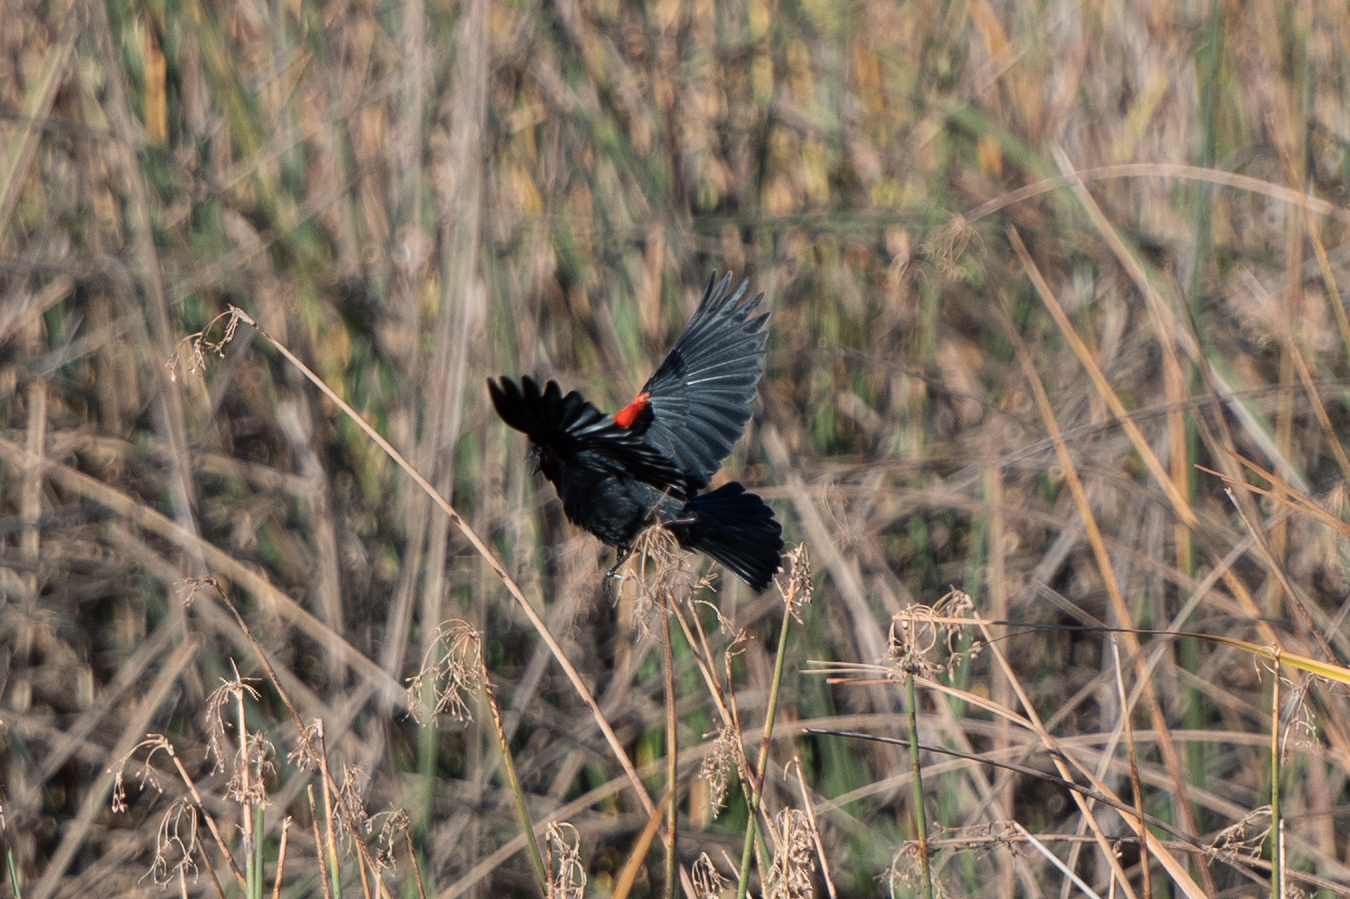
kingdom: Animalia
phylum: Chordata
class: Aves
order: Passeriformes
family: Icteridae
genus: Agelaius
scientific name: Agelaius phoeniceus
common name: Red-winged blackbird
